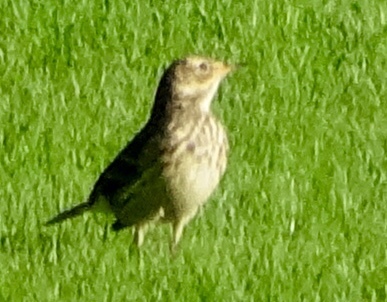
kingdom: Animalia
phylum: Chordata
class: Aves
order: Passeriformes
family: Motacillidae
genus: Anthus
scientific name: Anthus rubescens
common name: Buff-bellied pipit
